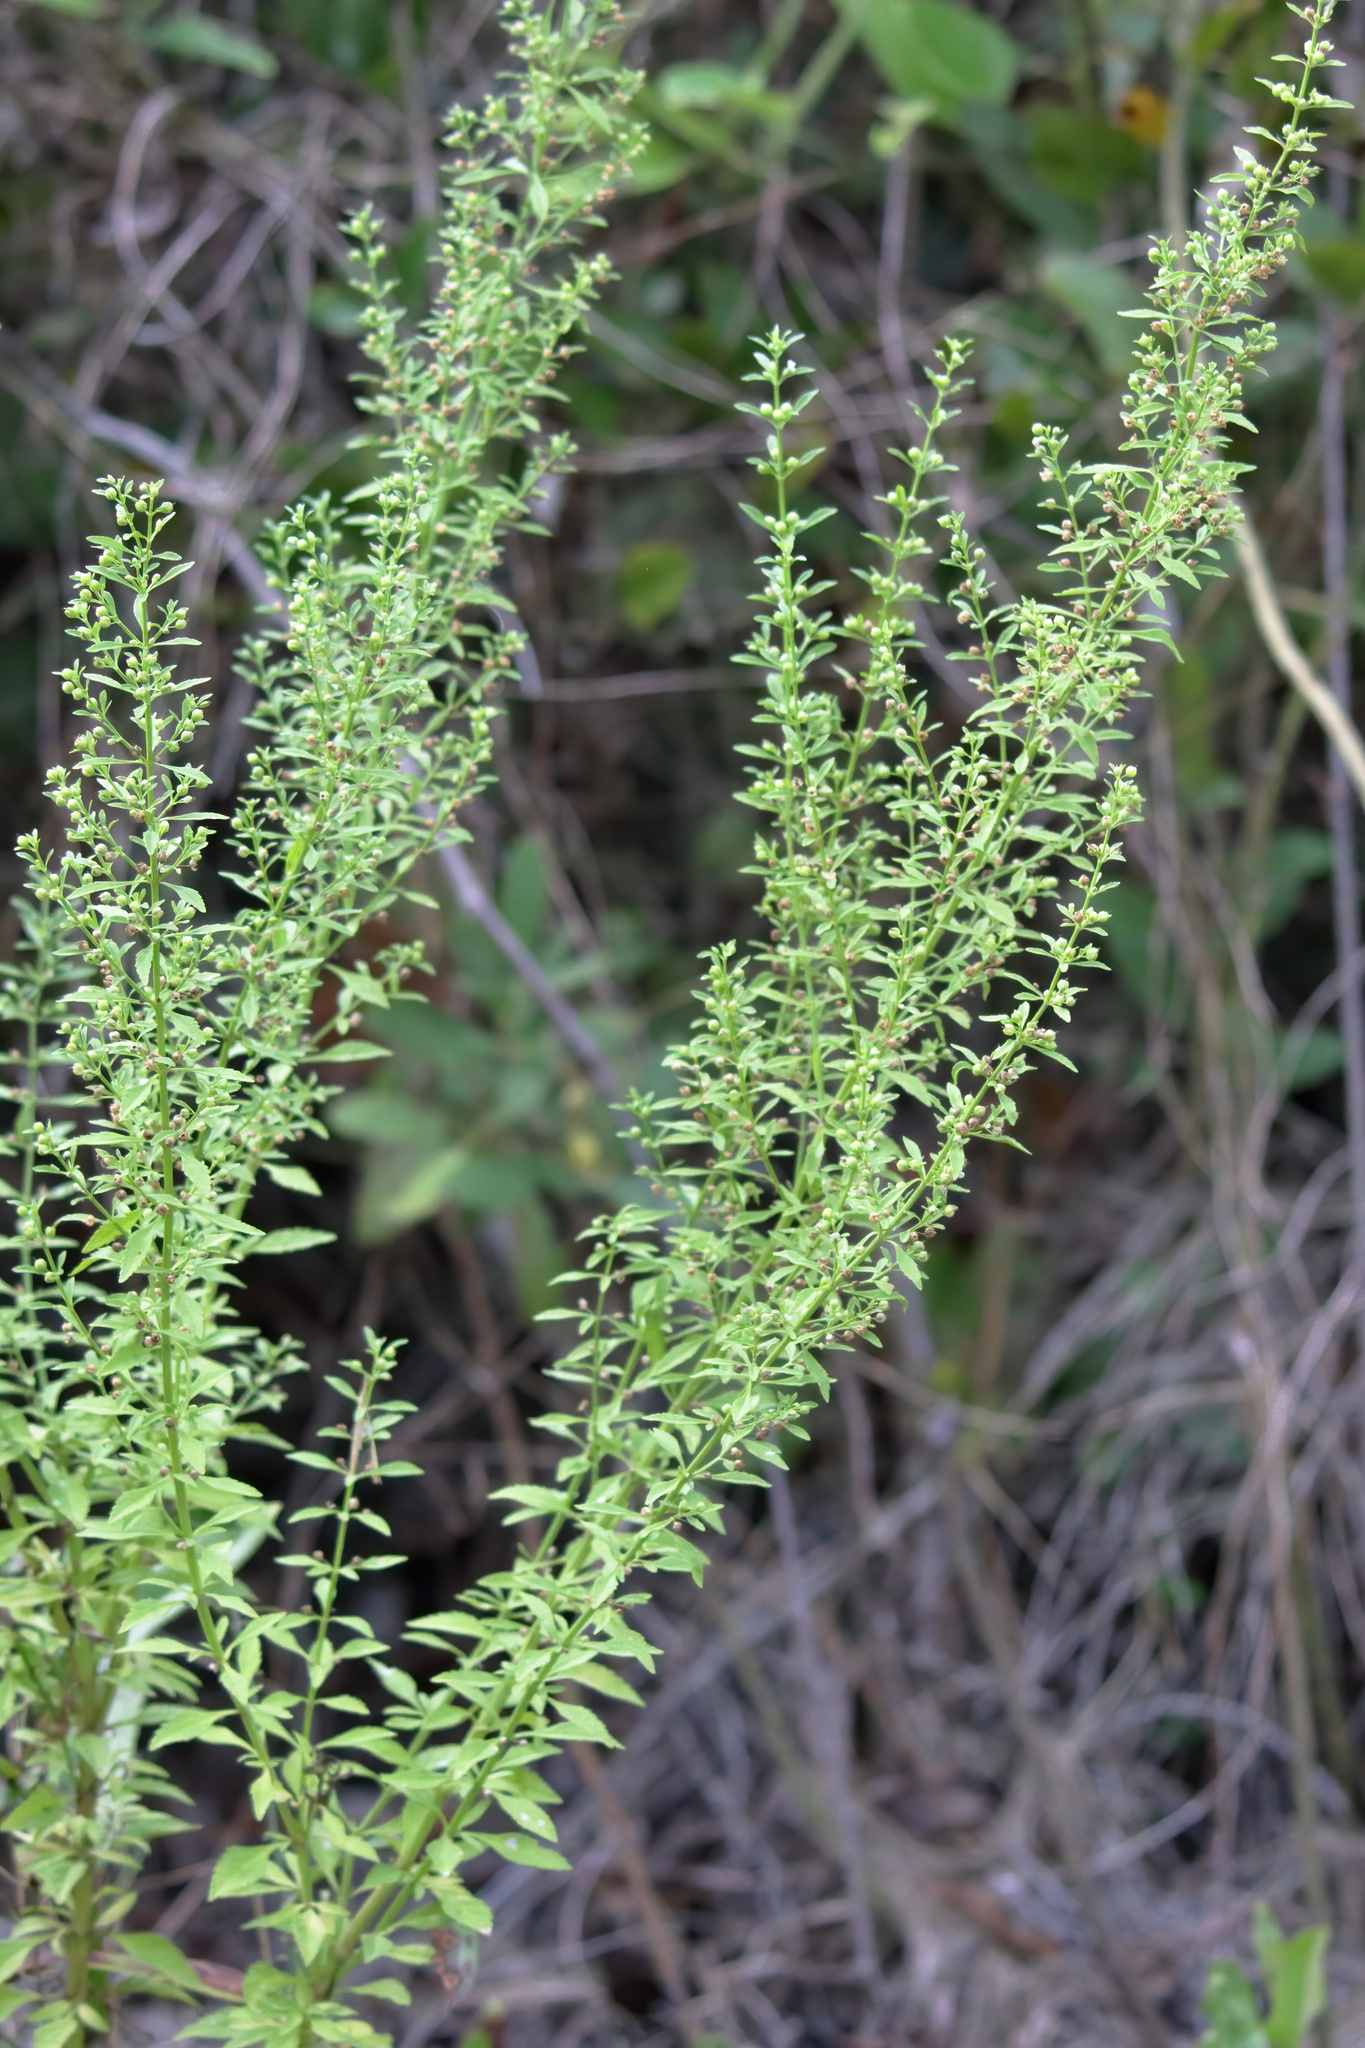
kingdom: Plantae
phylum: Tracheophyta
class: Magnoliopsida
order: Lamiales
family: Plantaginaceae
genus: Scoparia
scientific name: Scoparia dulcis
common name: Scoparia-weed
